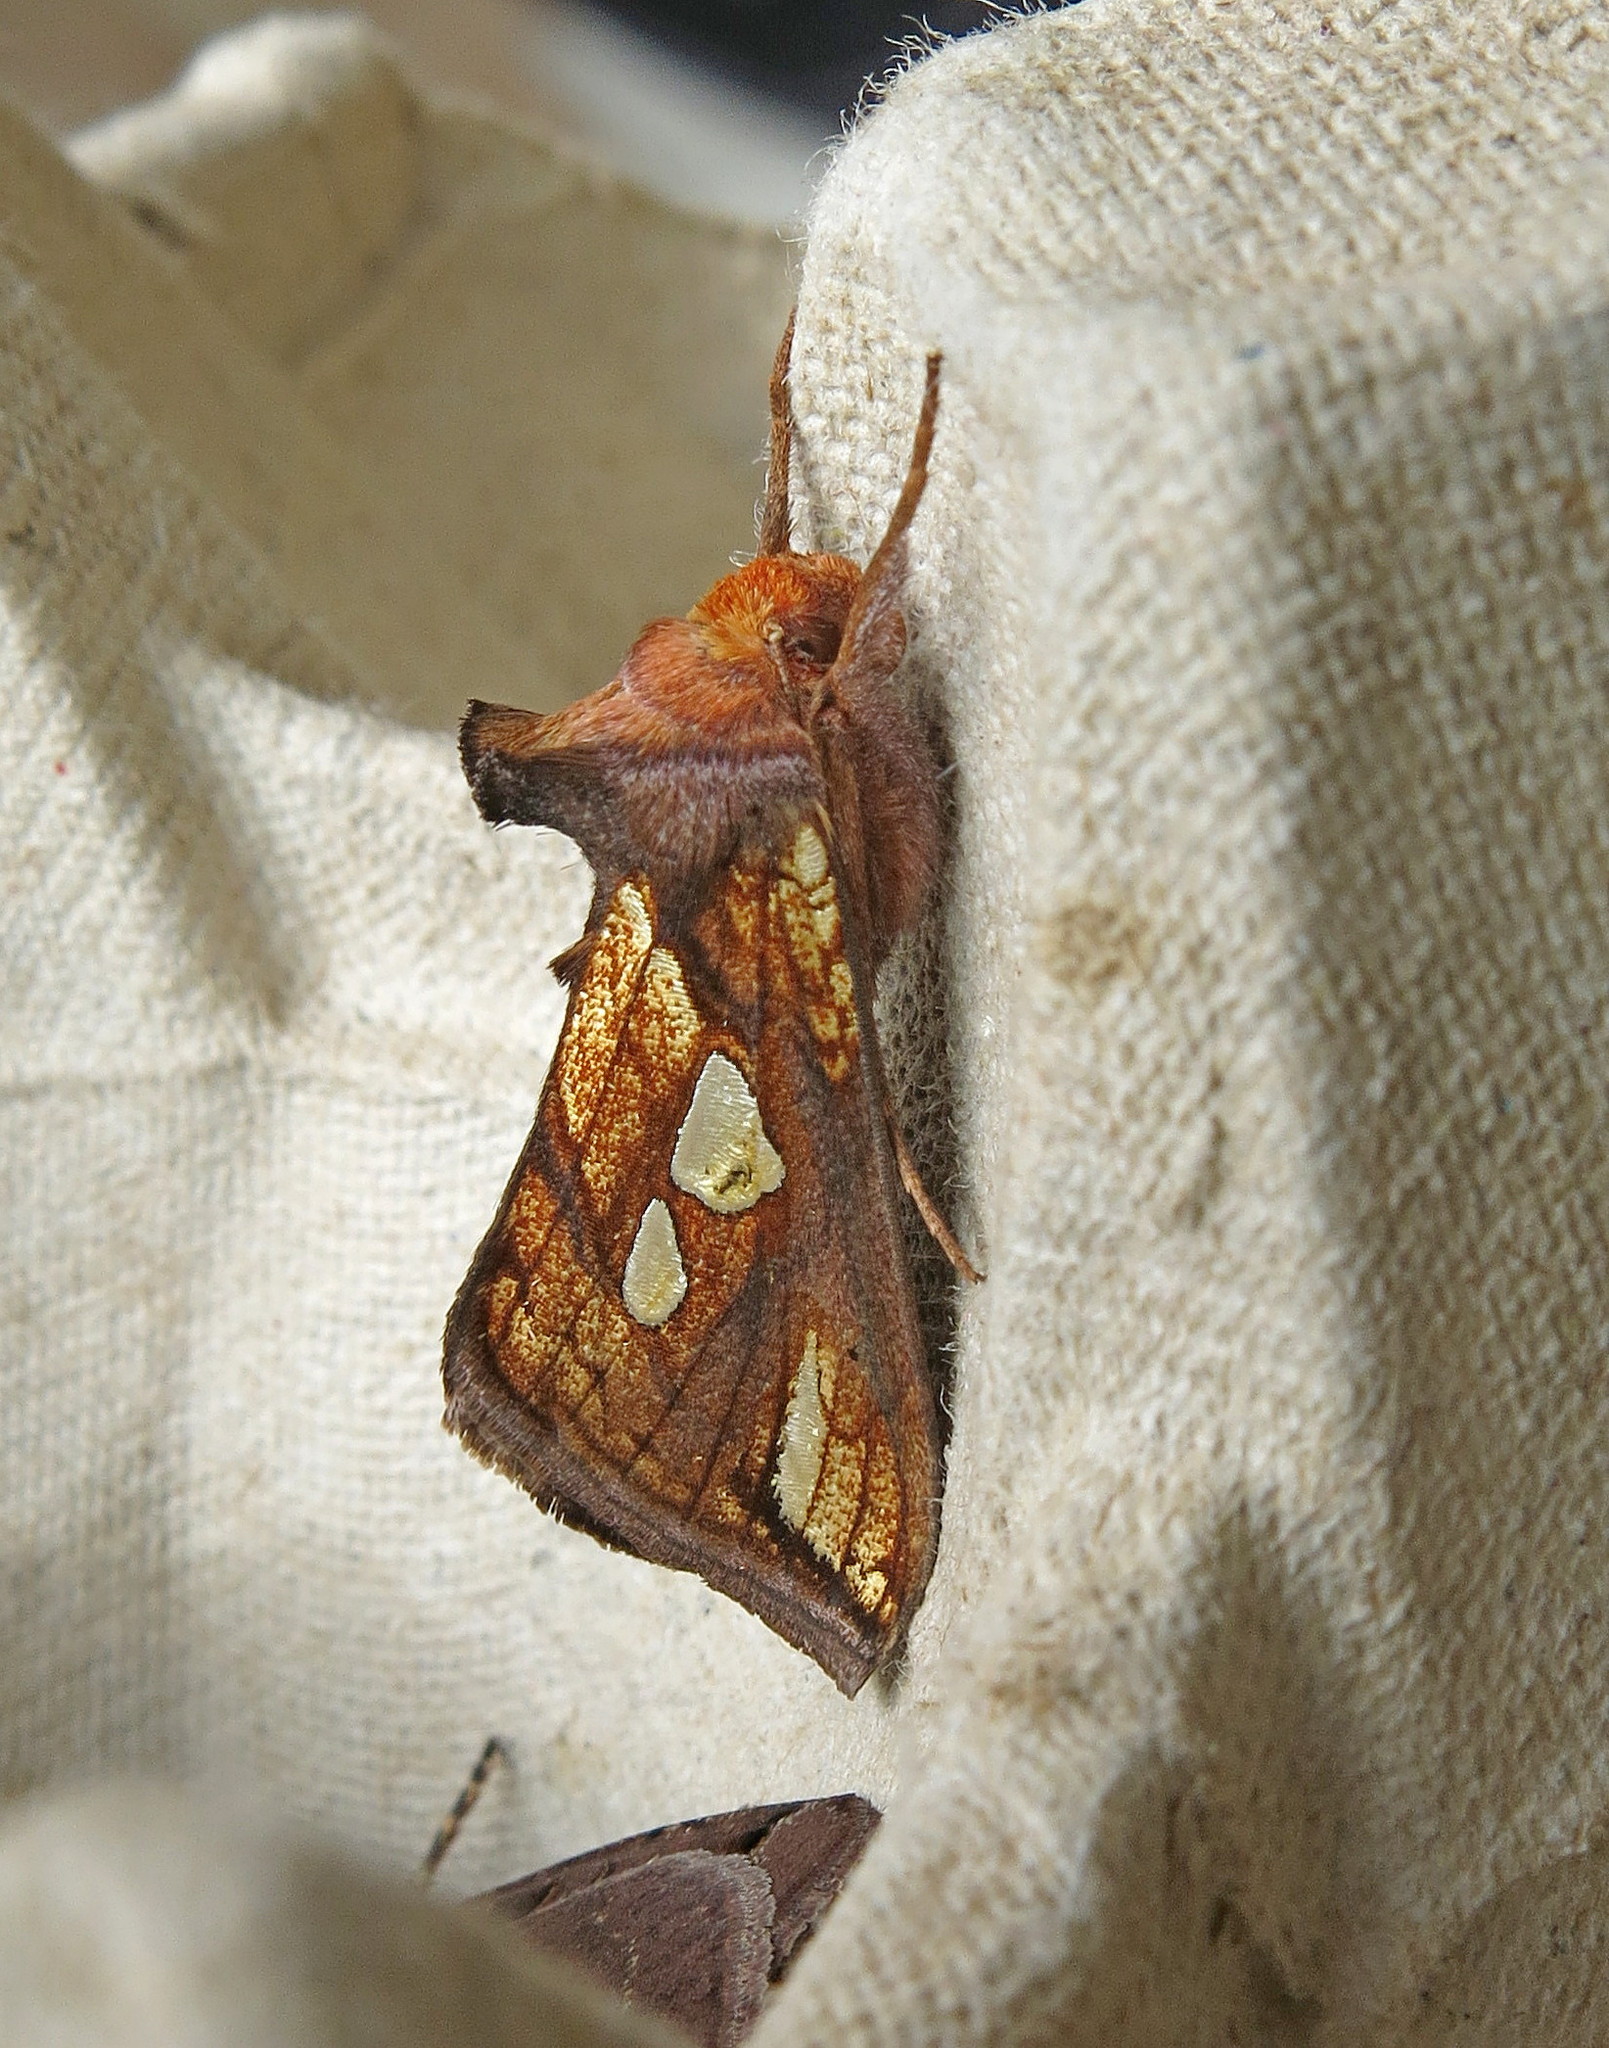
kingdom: Animalia
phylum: Arthropoda
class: Insecta
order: Lepidoptera
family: Noctuidae
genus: Plusia
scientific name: Plusia festucae
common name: Gold spot
